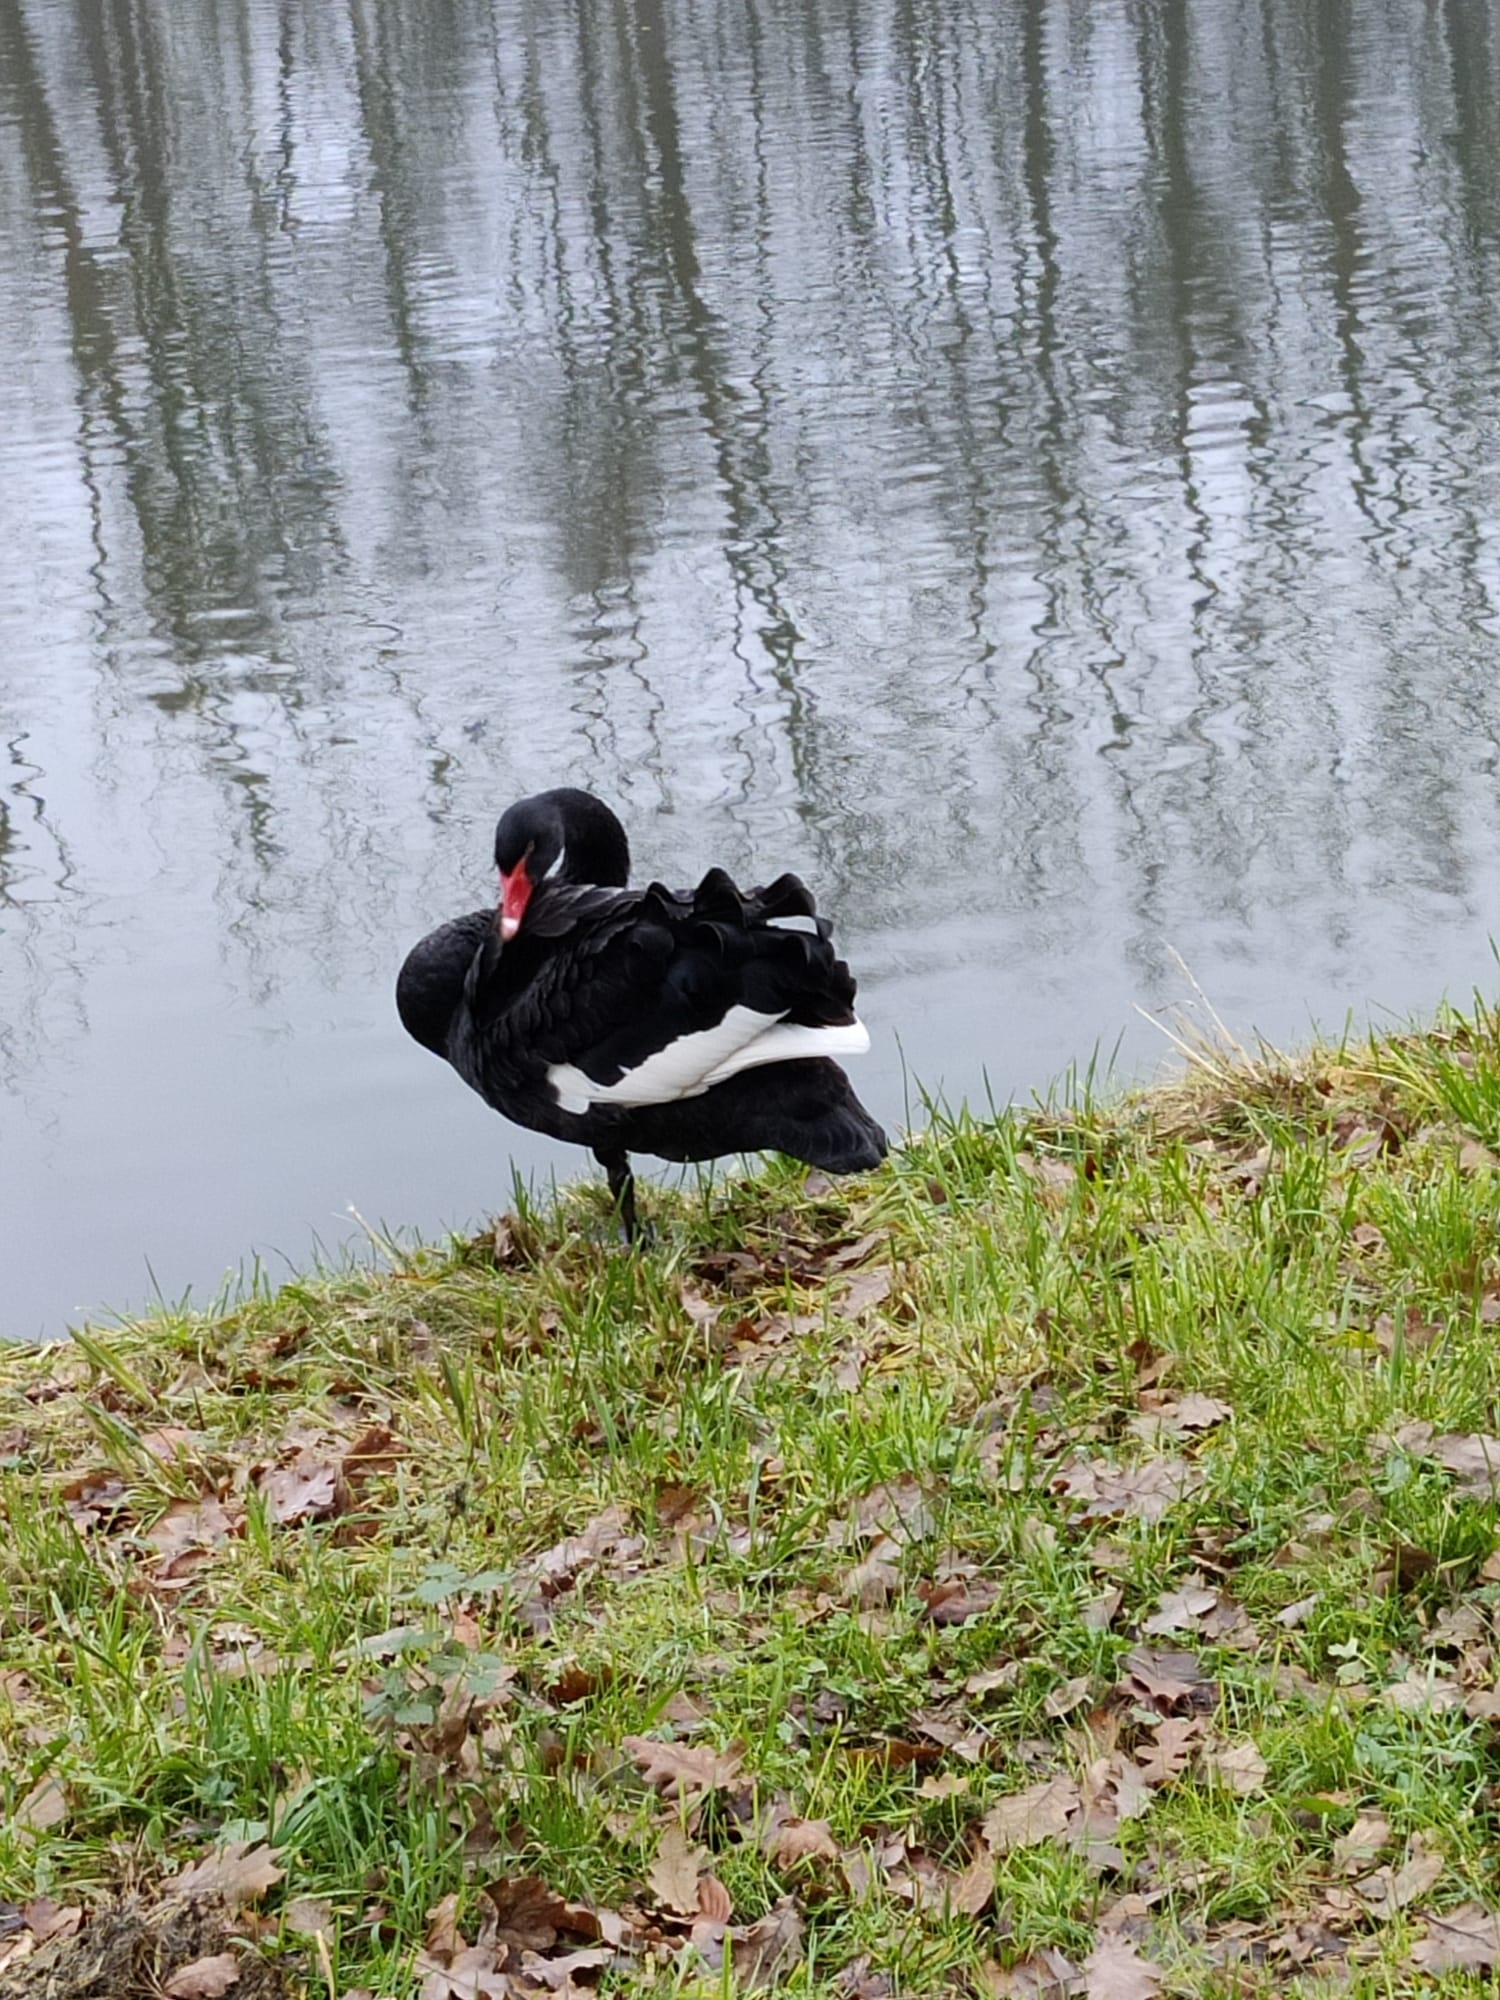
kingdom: Animalia
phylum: Chordata
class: Aves
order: Anseriformes
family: Anatidae
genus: Cygnus
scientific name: Cygnus atratus
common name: Black swan
